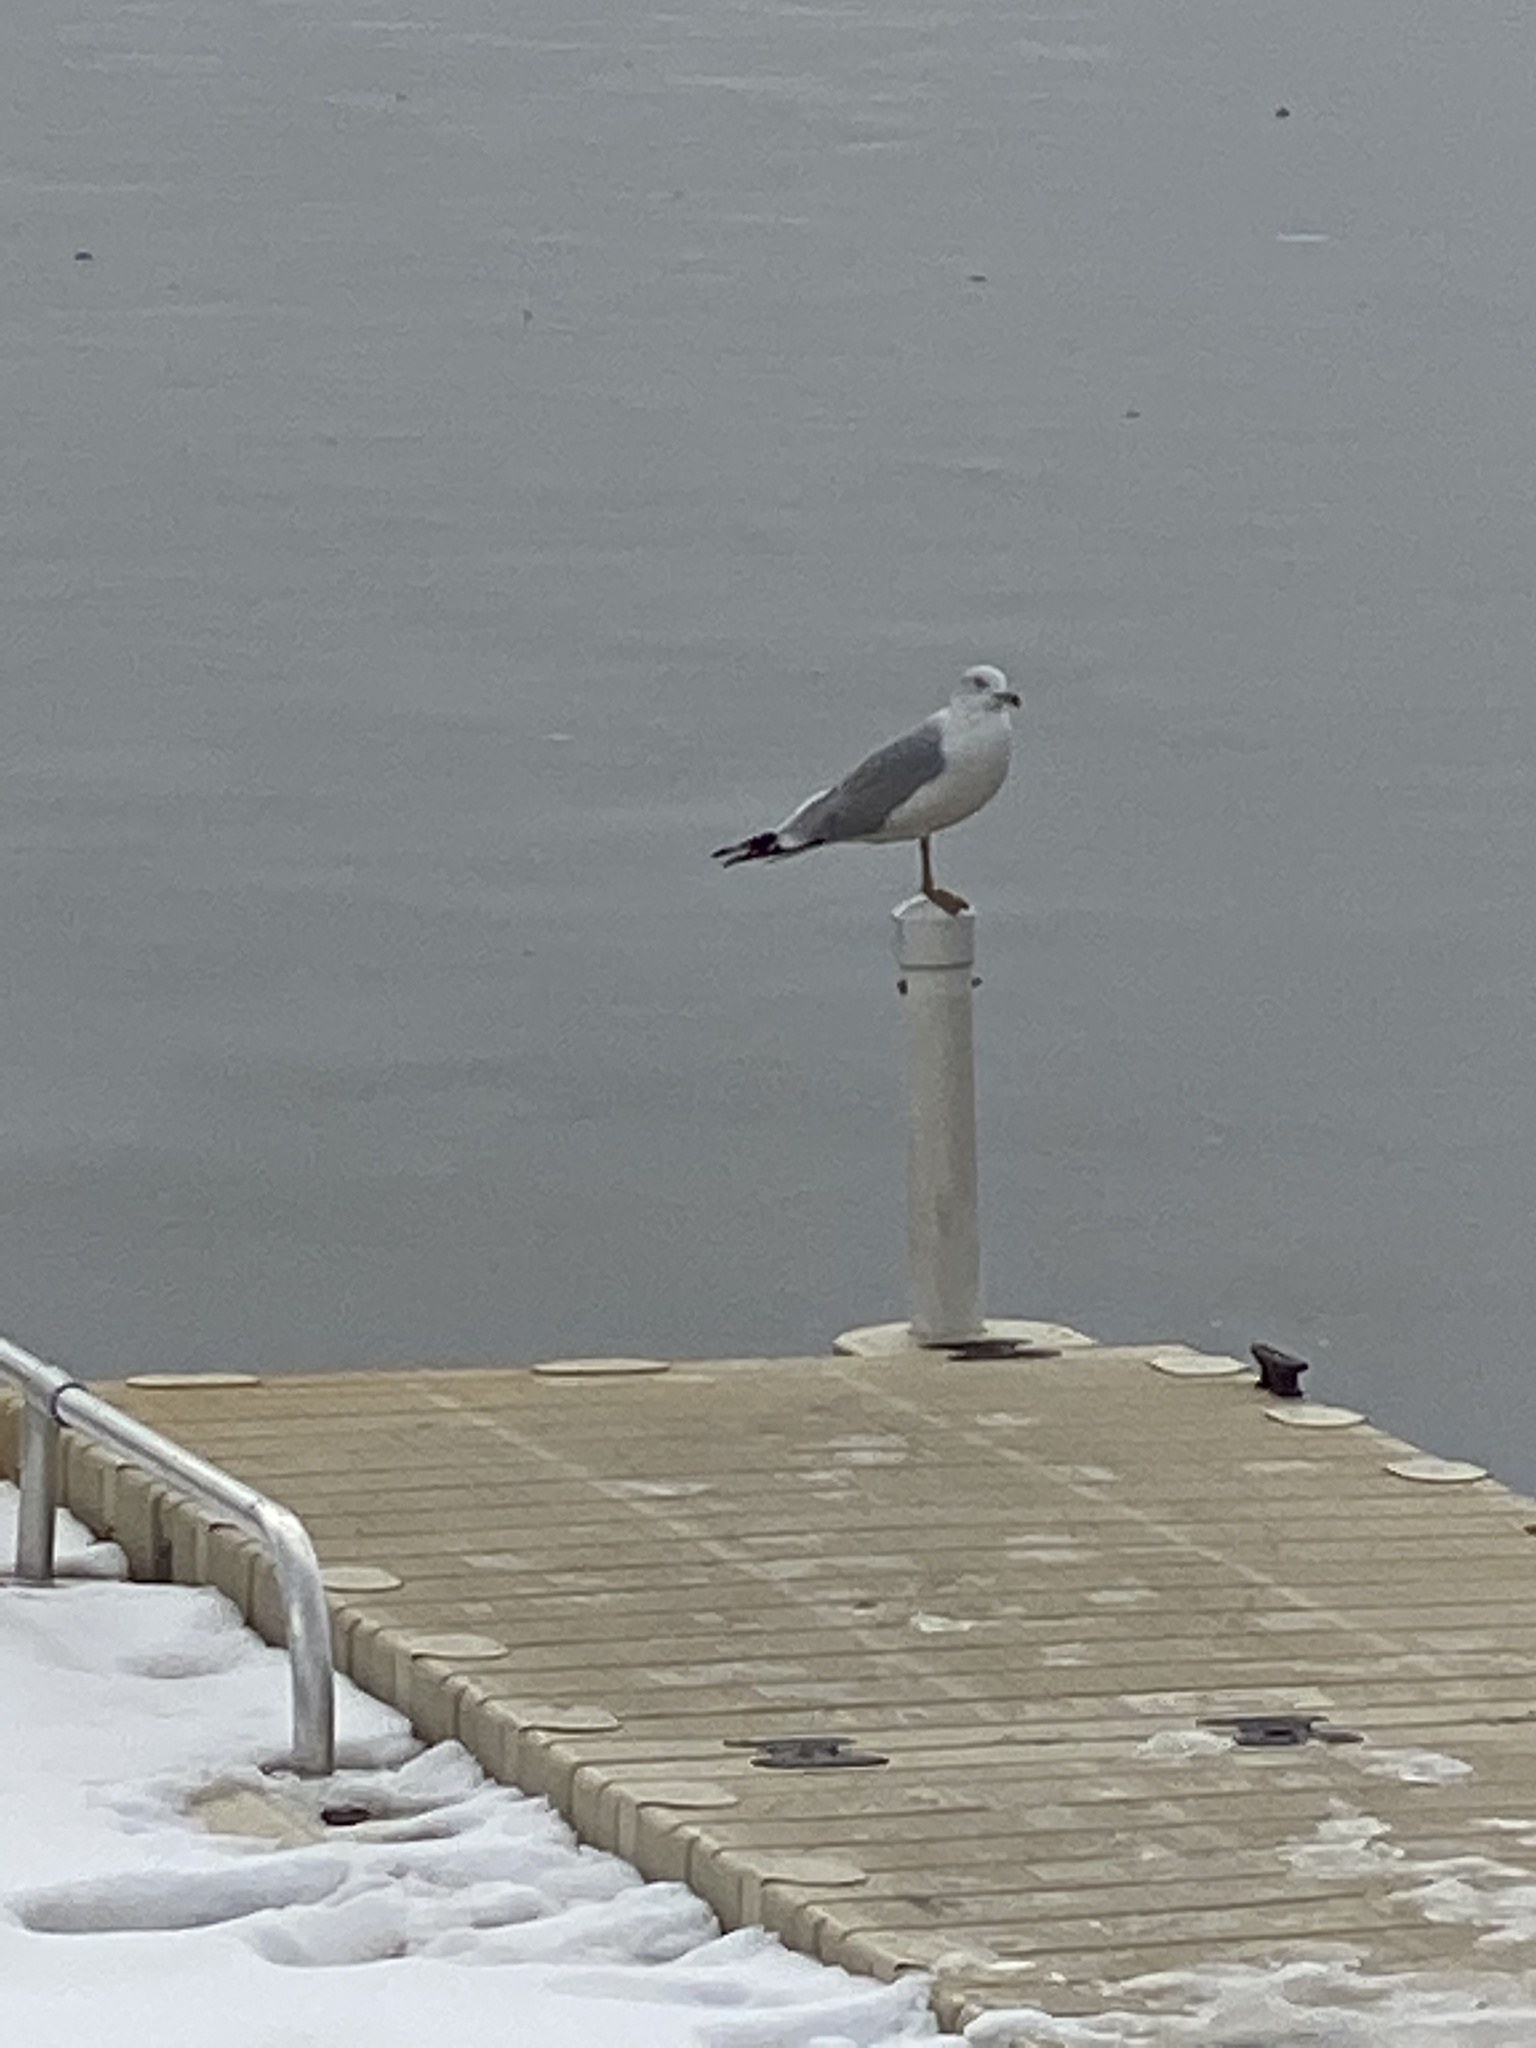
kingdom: Animalia
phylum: Chordata
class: Aves
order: Charadriiformes
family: Laridae
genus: Larus
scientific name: Larus delawarensis
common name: Ring-billed gull
